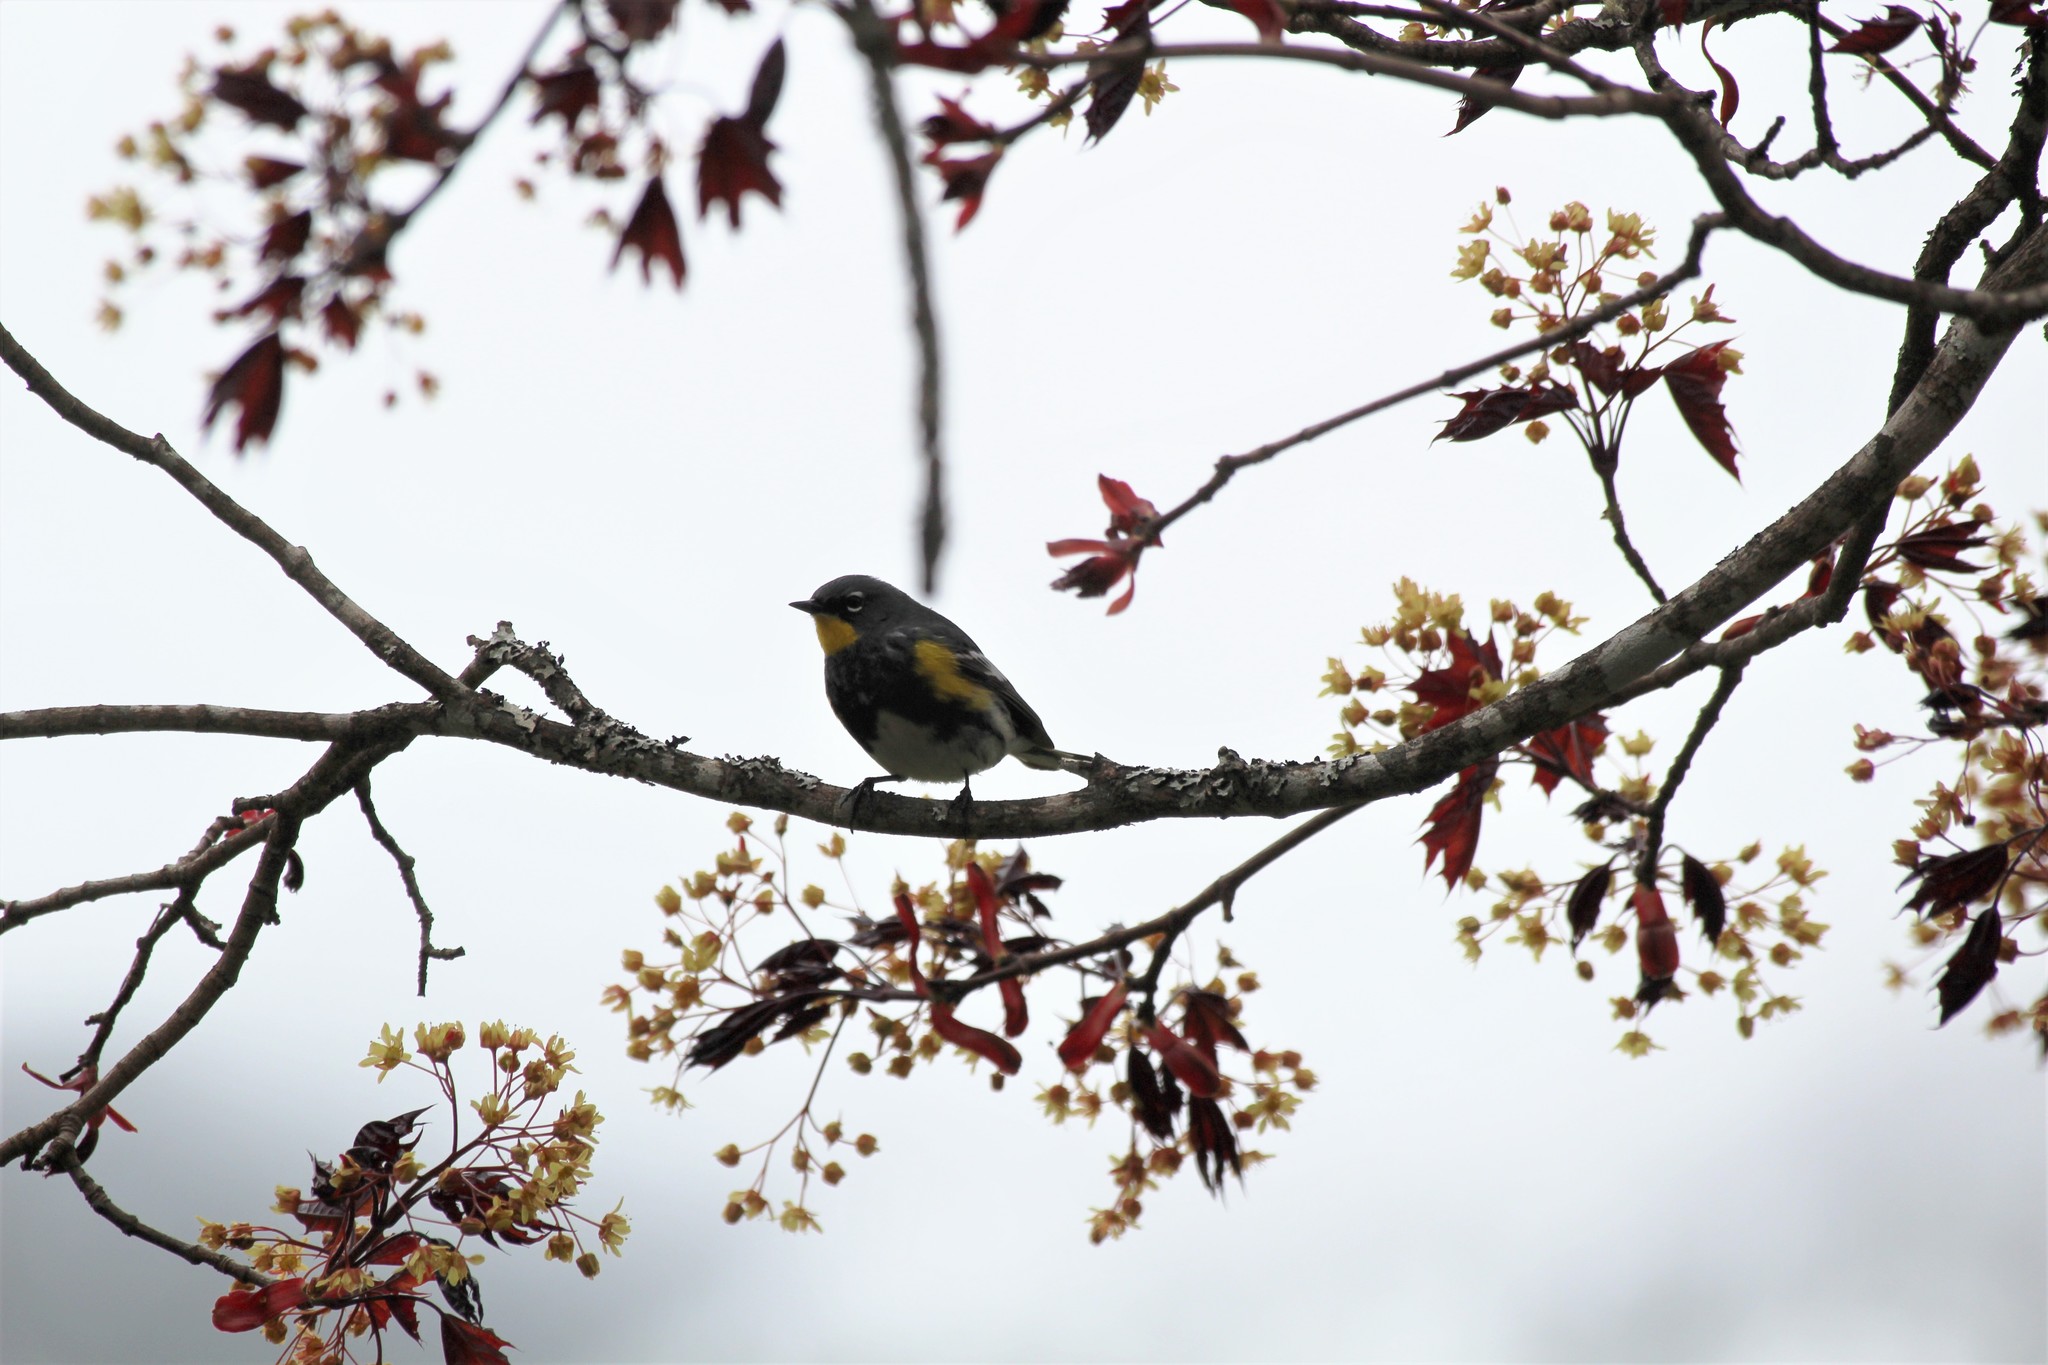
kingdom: Animalia
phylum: Chordata
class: Aves
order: Passeriformes
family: Parulidae
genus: Setophaga
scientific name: Setophaga auduboni
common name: Audubon's warbler
